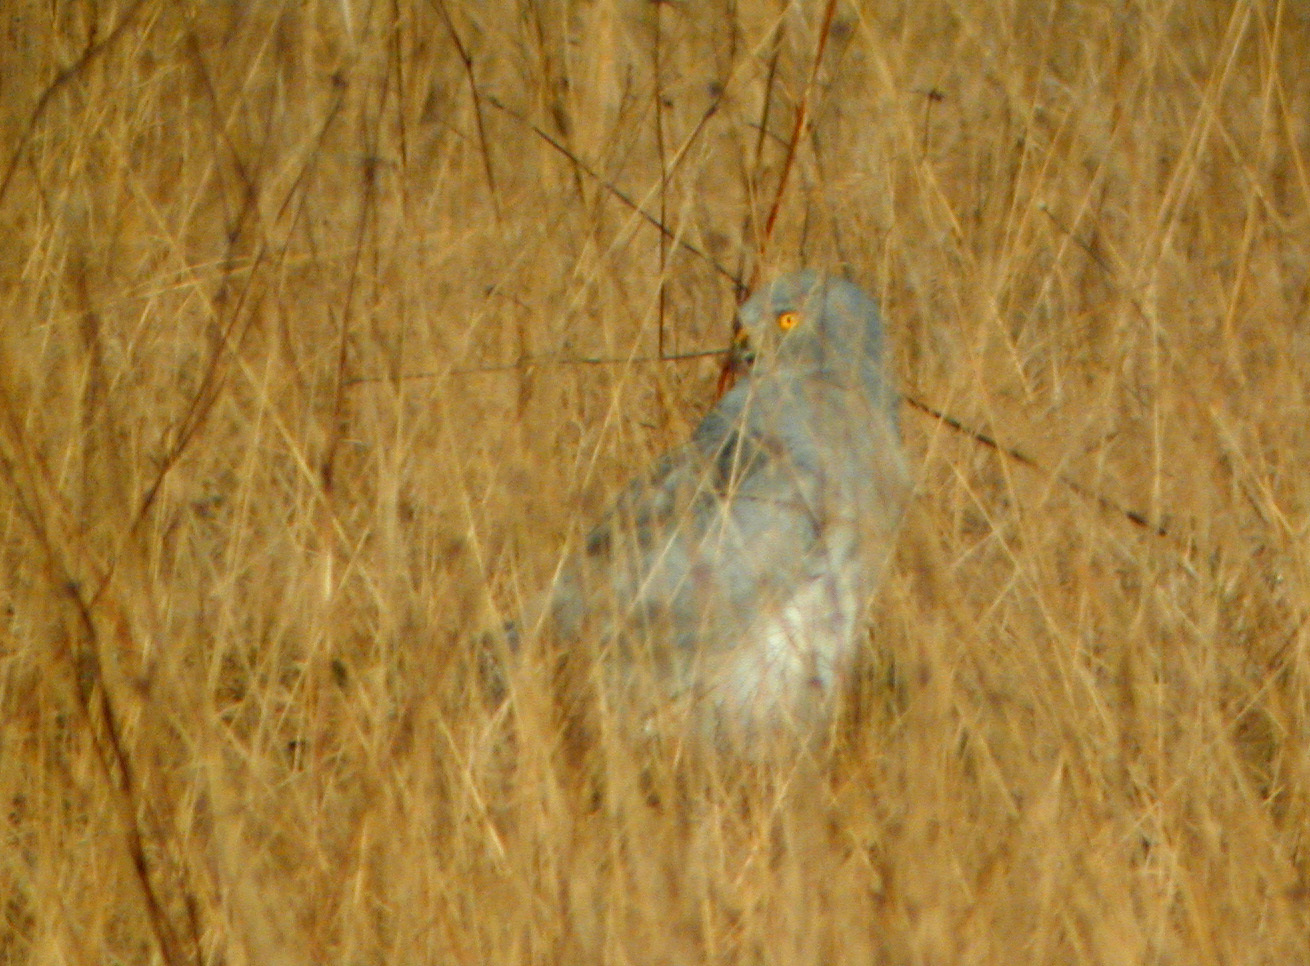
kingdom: Animalia
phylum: Chordata
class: Aves
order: Accipitriformes
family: Accipitridae
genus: Circus
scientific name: Circus cyaneus
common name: Hen harrier
